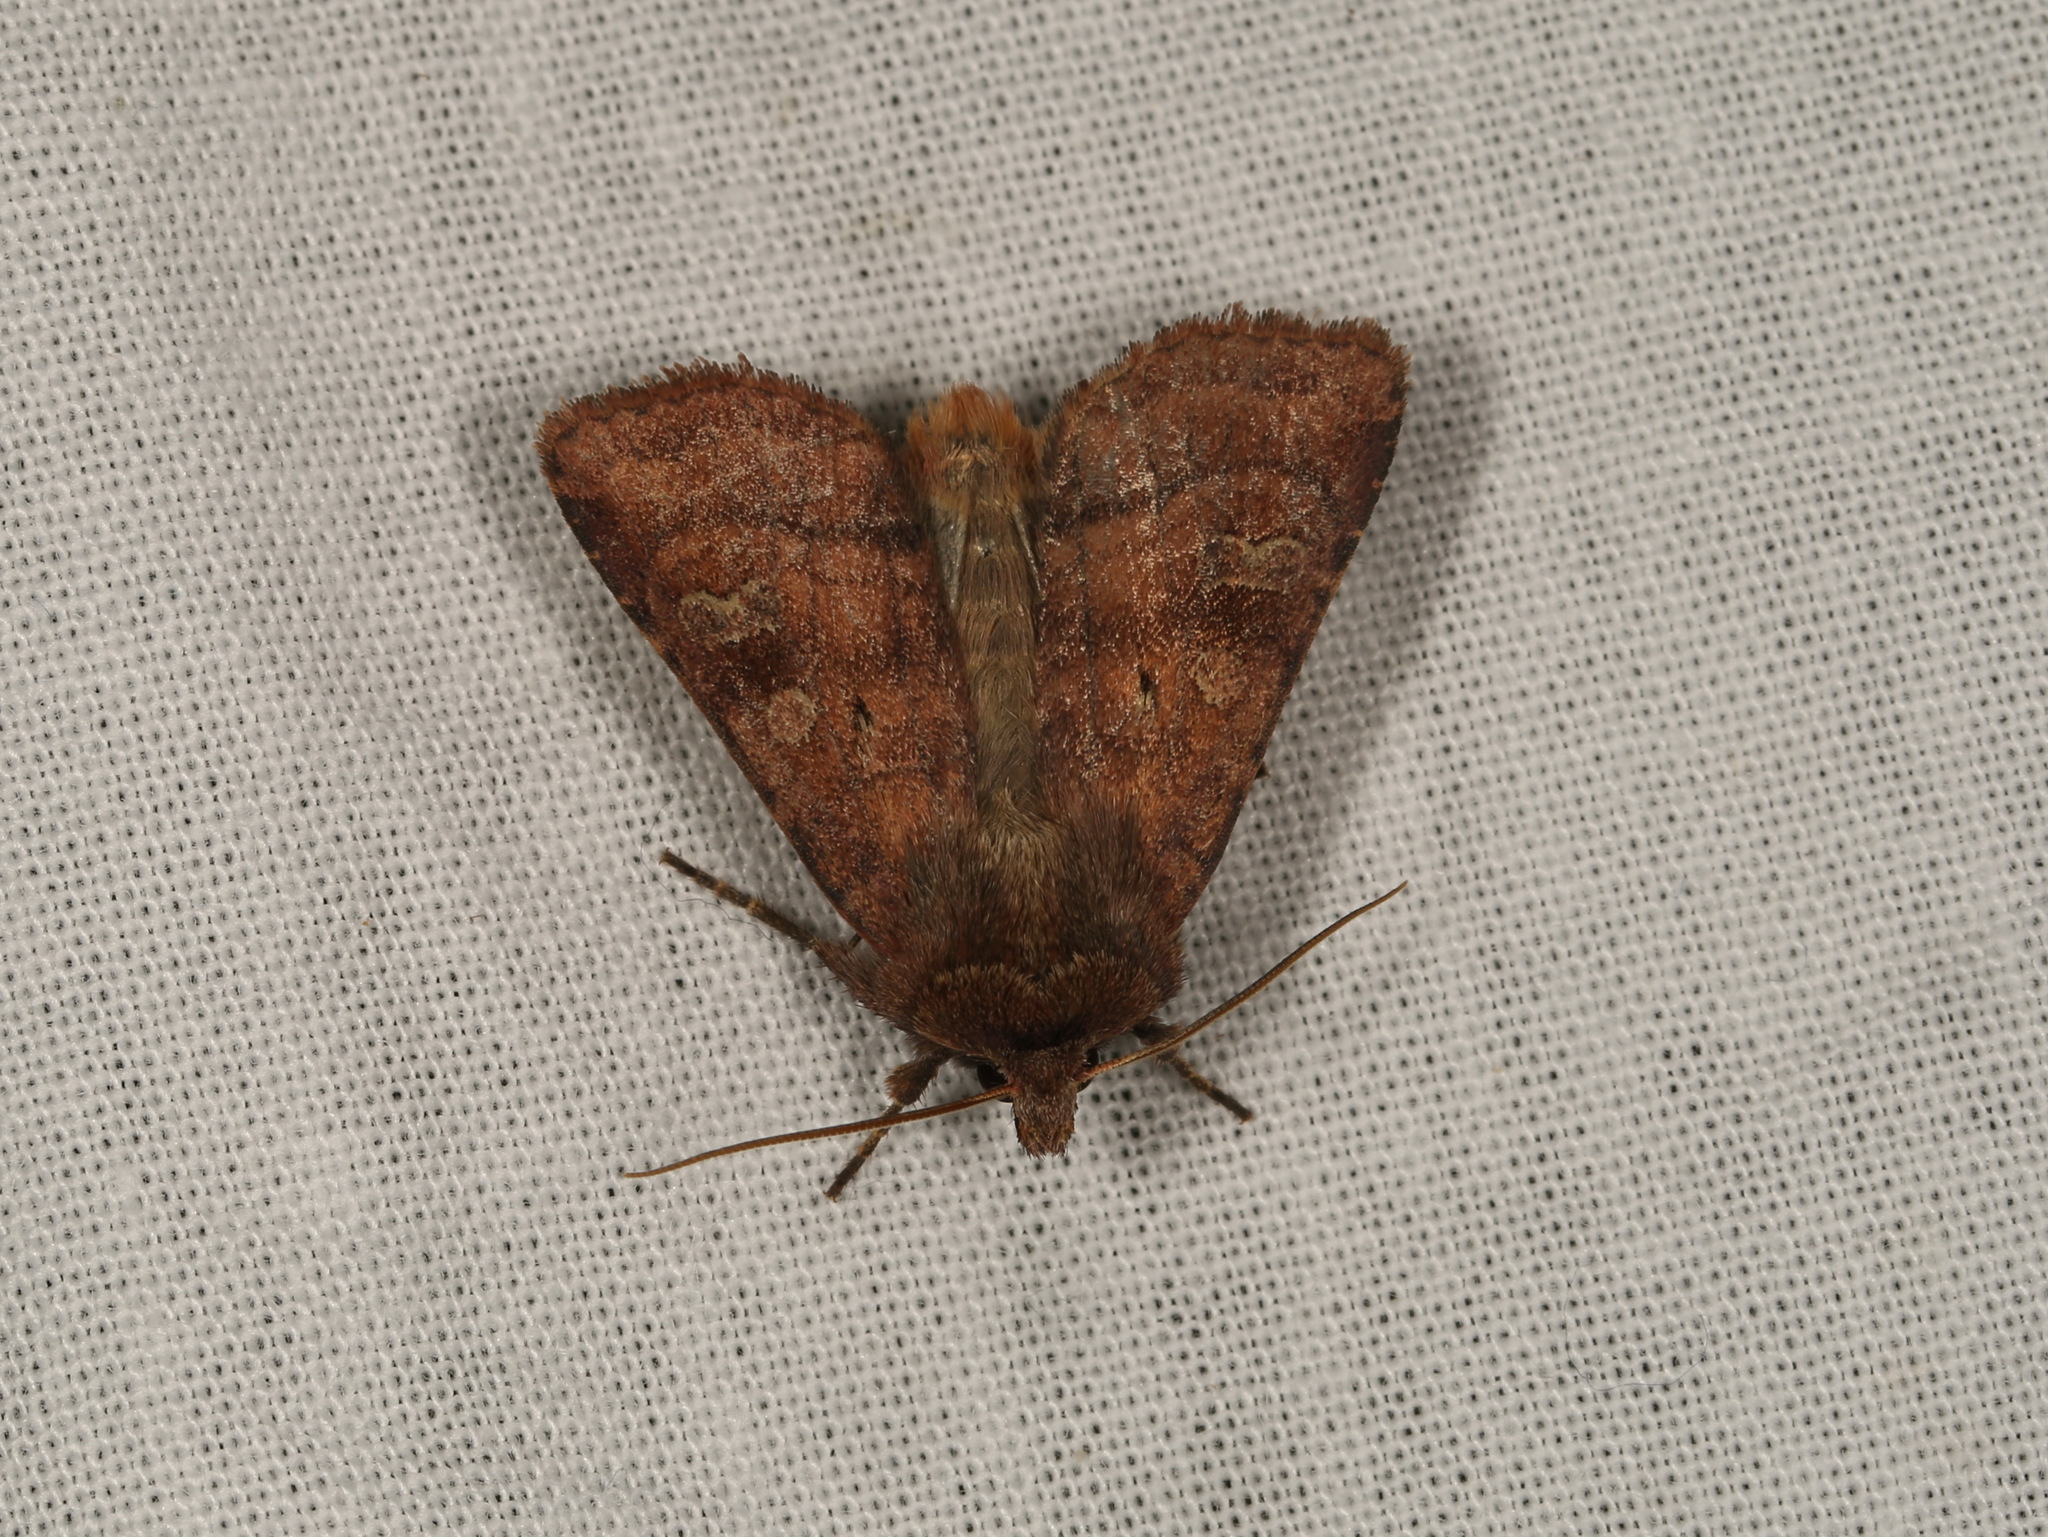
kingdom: Animalia
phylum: Arthropoda
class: Insecta
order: Lepidoptera
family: Noctuidae
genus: Diarsia
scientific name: Diarsia rubi
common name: Small square-spot
